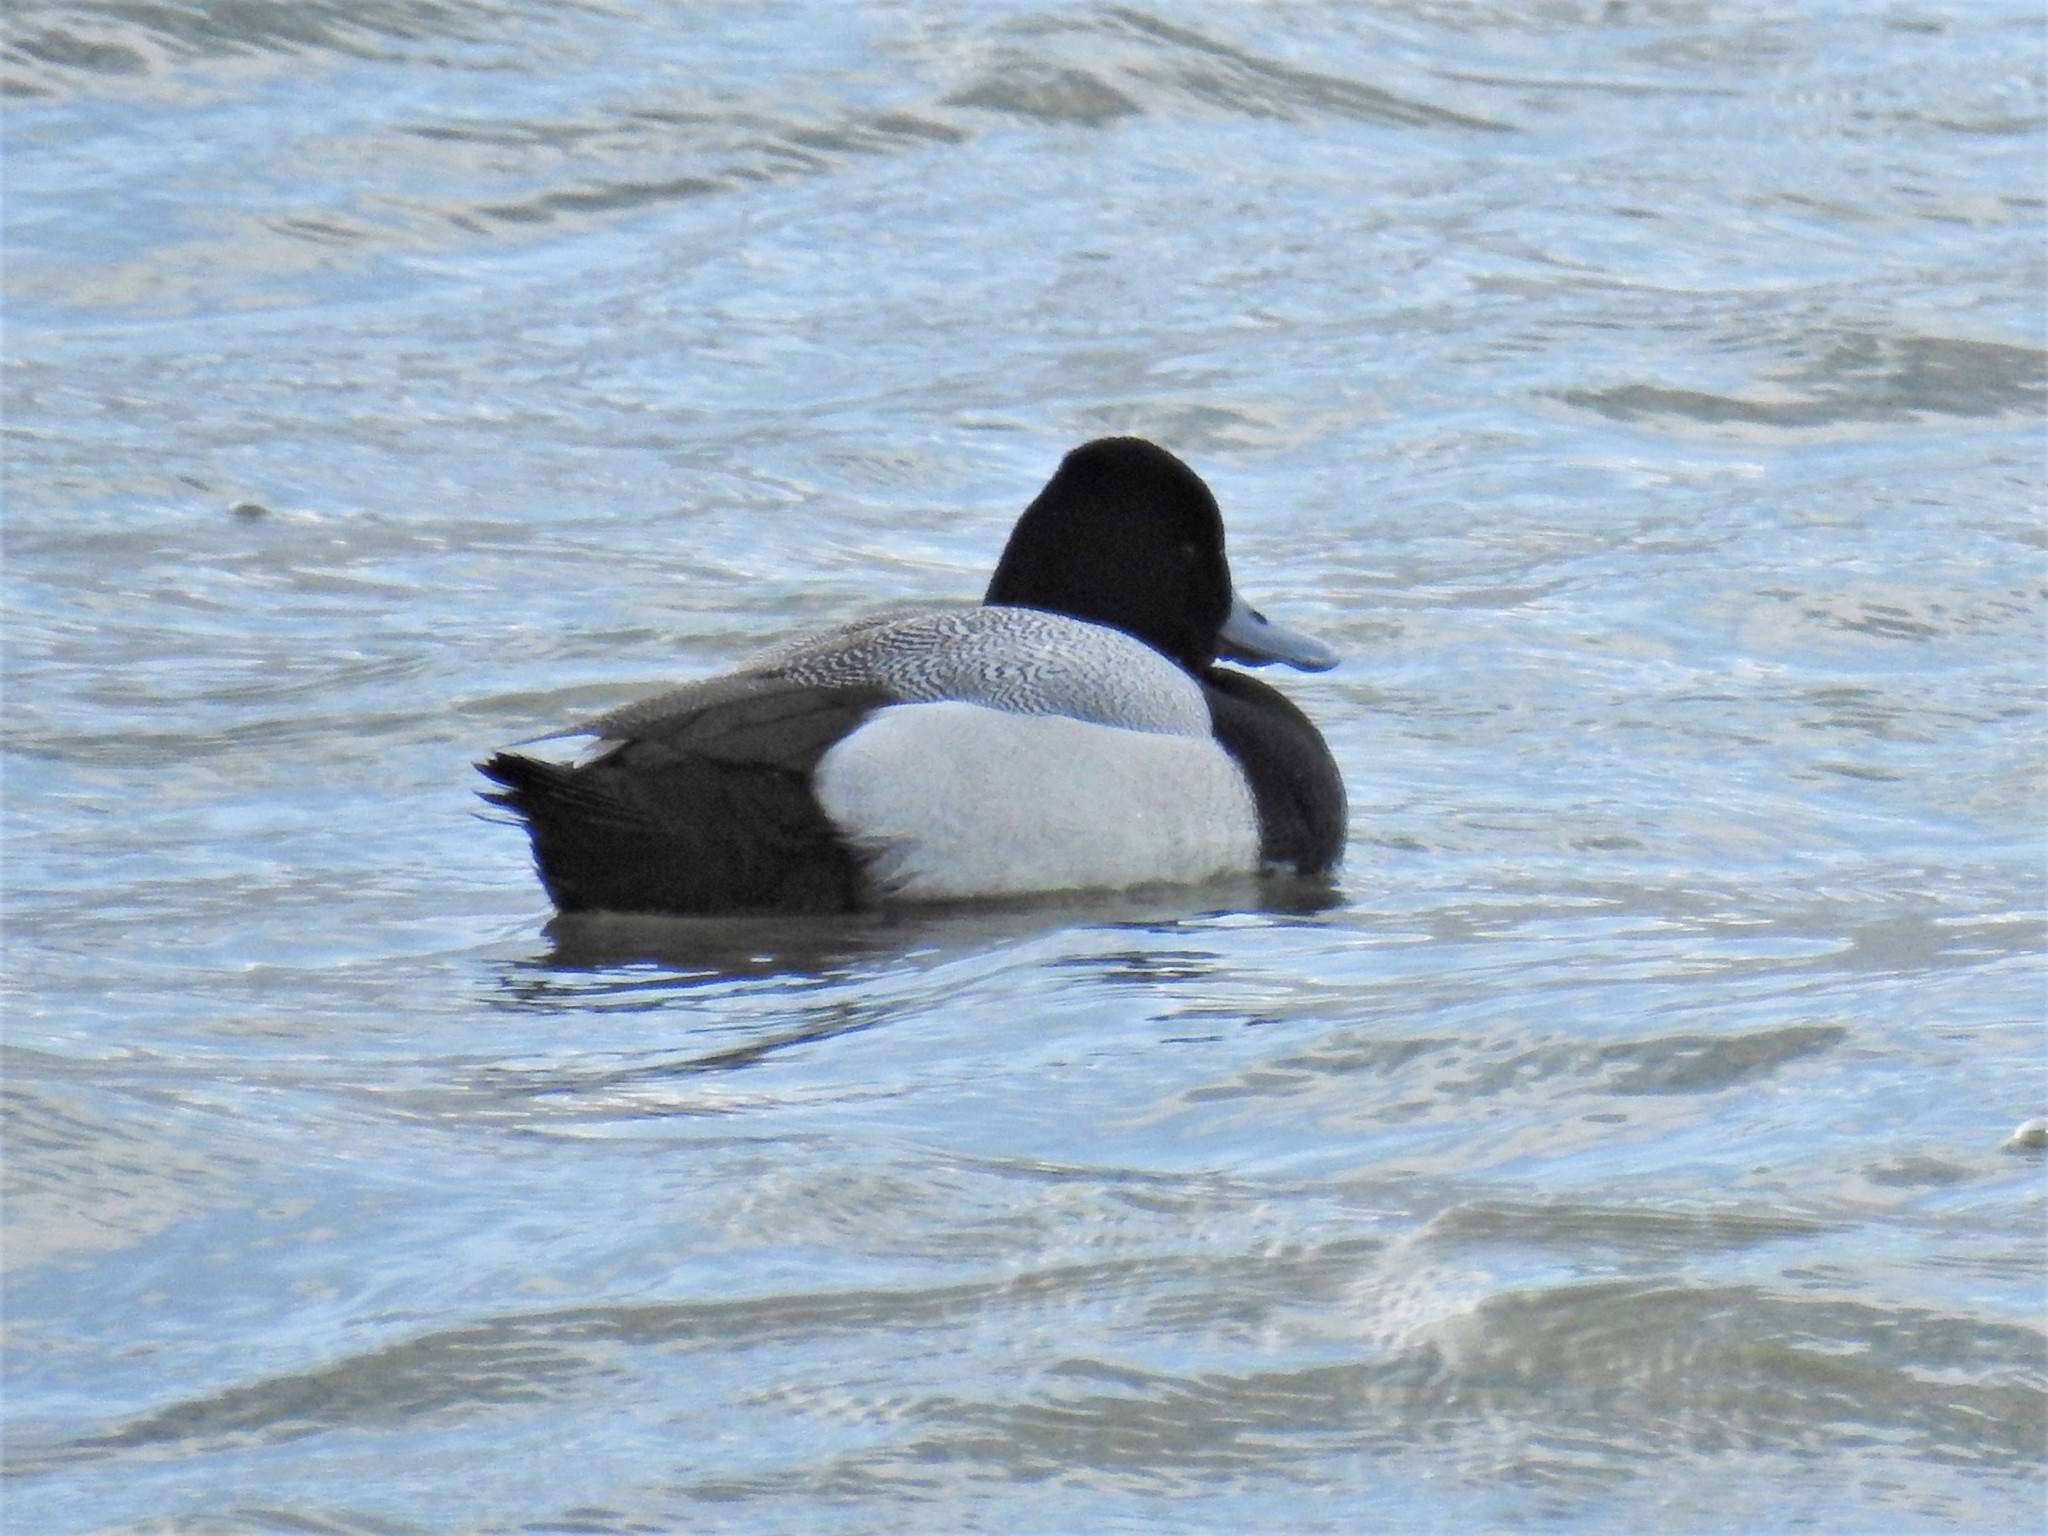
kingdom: Animalia
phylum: Chordata
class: Aves
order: Anseriformes
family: Anatidae
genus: Aythya
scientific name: Aythya affinis
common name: Lesser scaup
